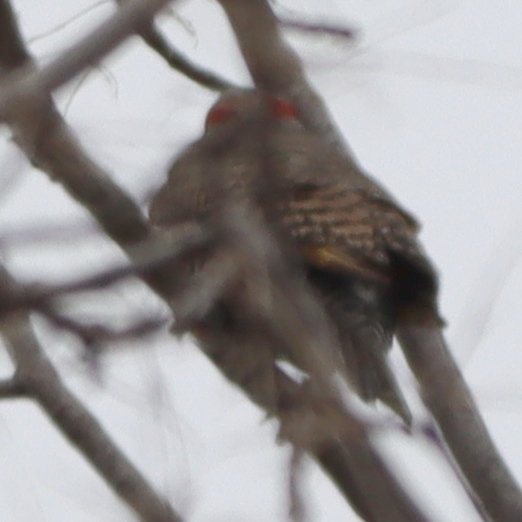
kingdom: Animalia
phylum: Chordata
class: Aves
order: Piciformes
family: Picidae
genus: Colaptes
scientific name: Colaptes auratus
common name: Northern flicker
